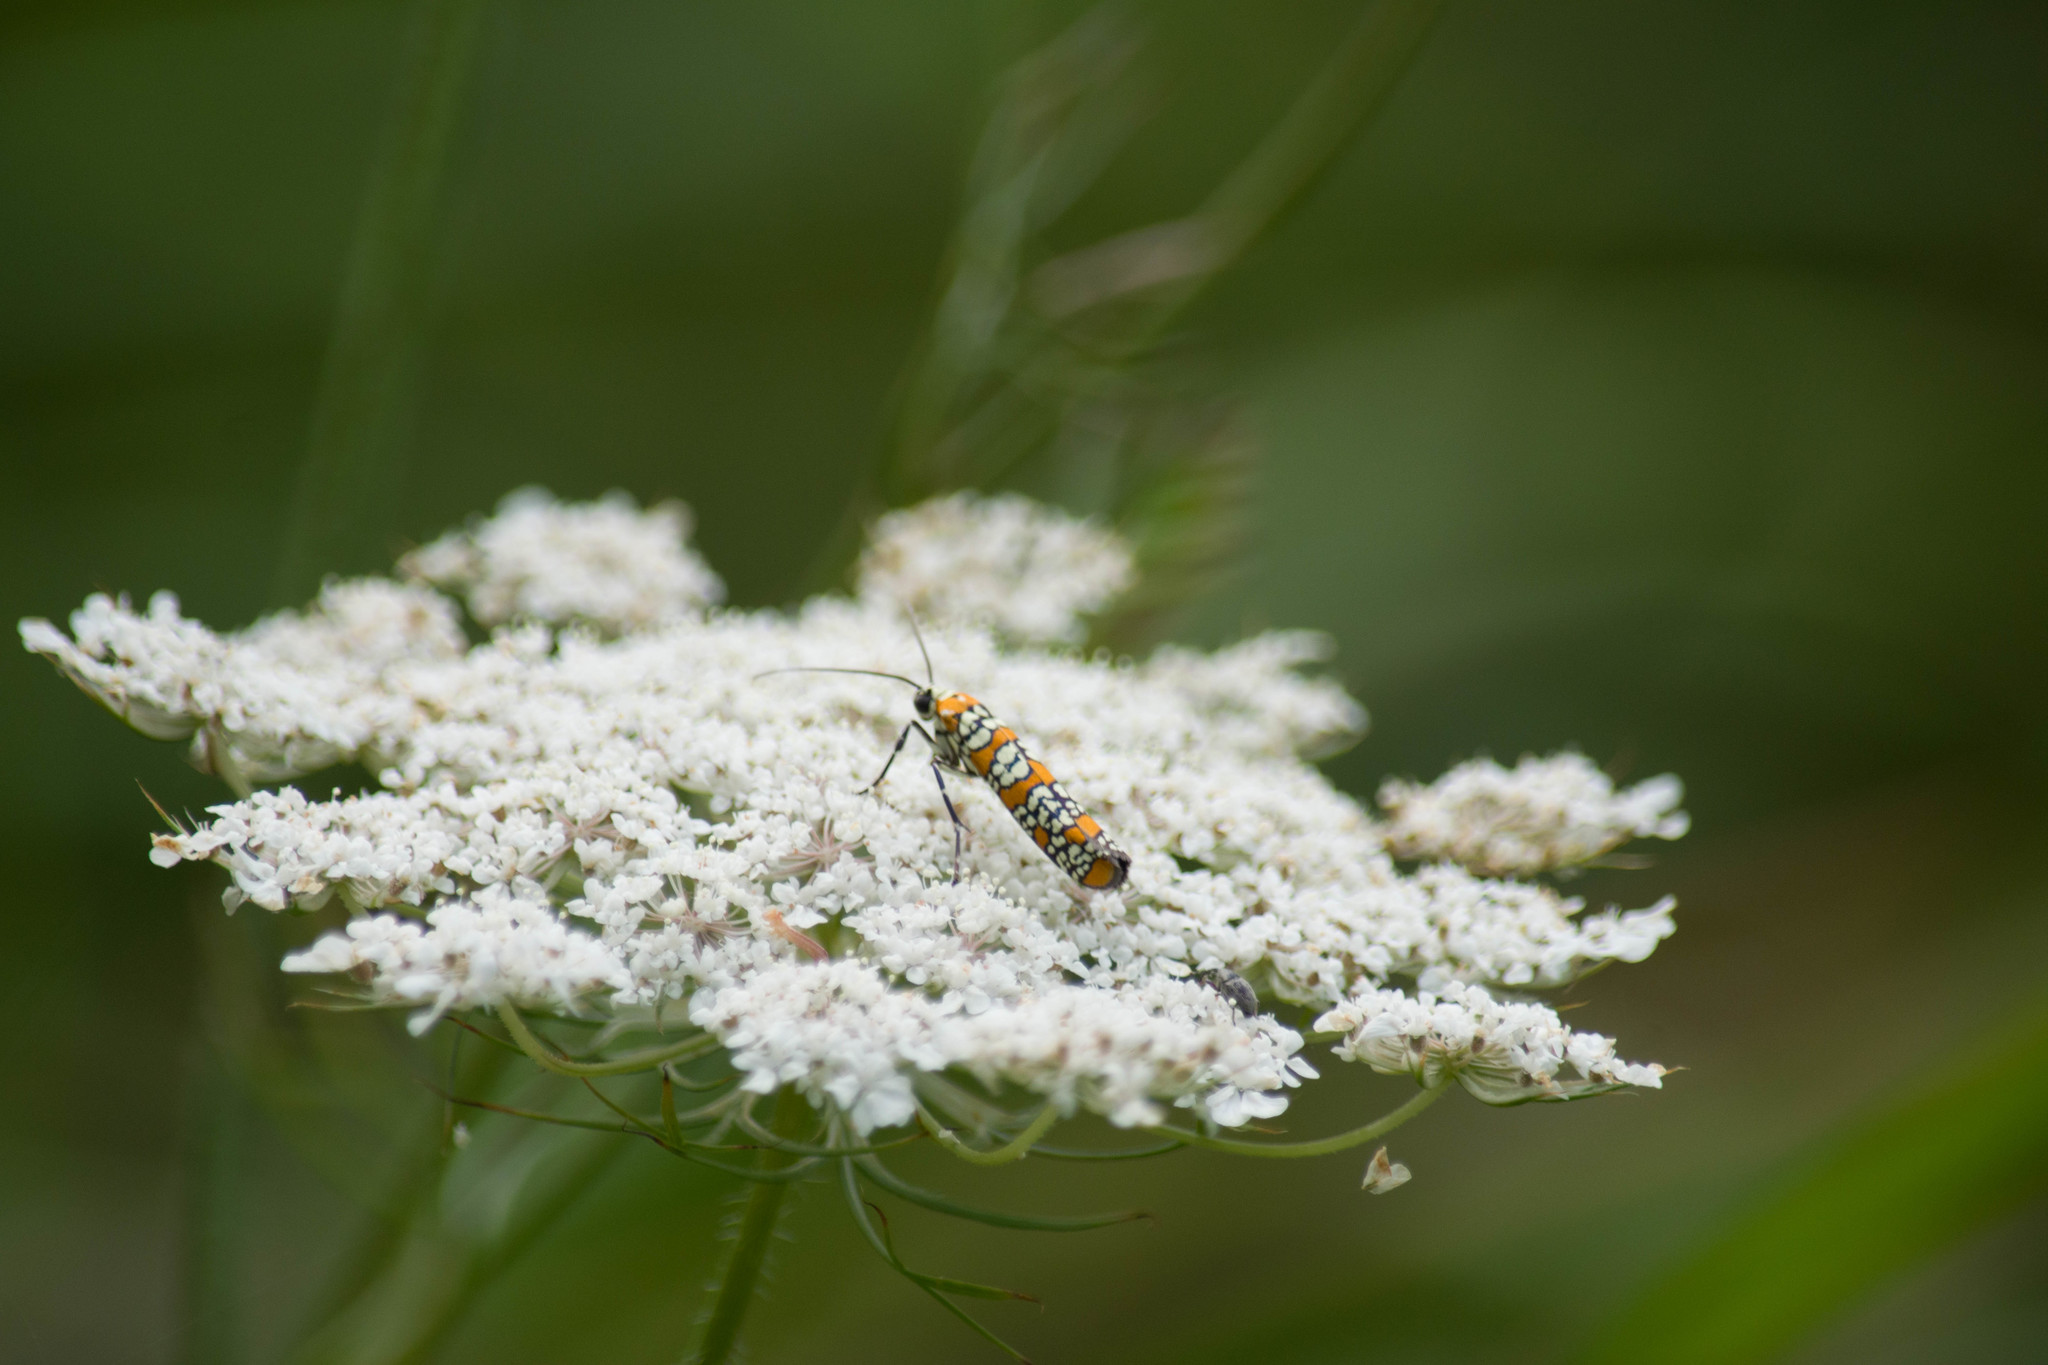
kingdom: Animalia
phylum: Arthropoda
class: Insecta
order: Lepidoptera
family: Attevidae
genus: Atteva
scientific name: Atteva punctella
